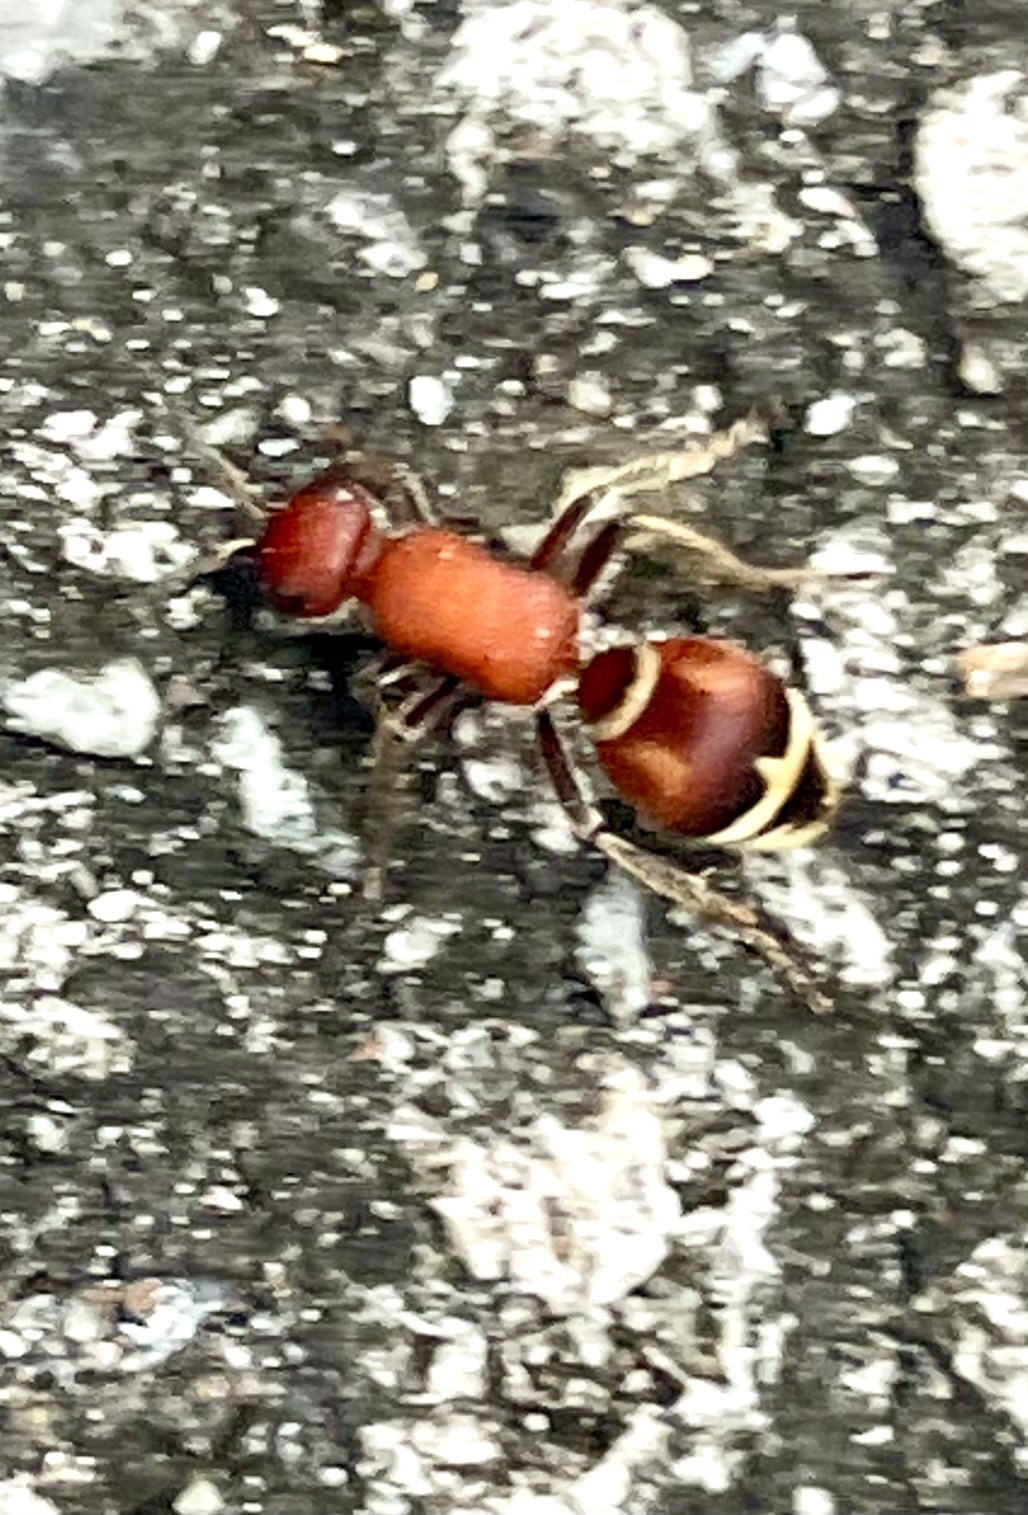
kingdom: Animalia
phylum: Arthropoda
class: Insecta
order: Hymenoptera
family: Mutillidae
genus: Timulla
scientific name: Timulla
